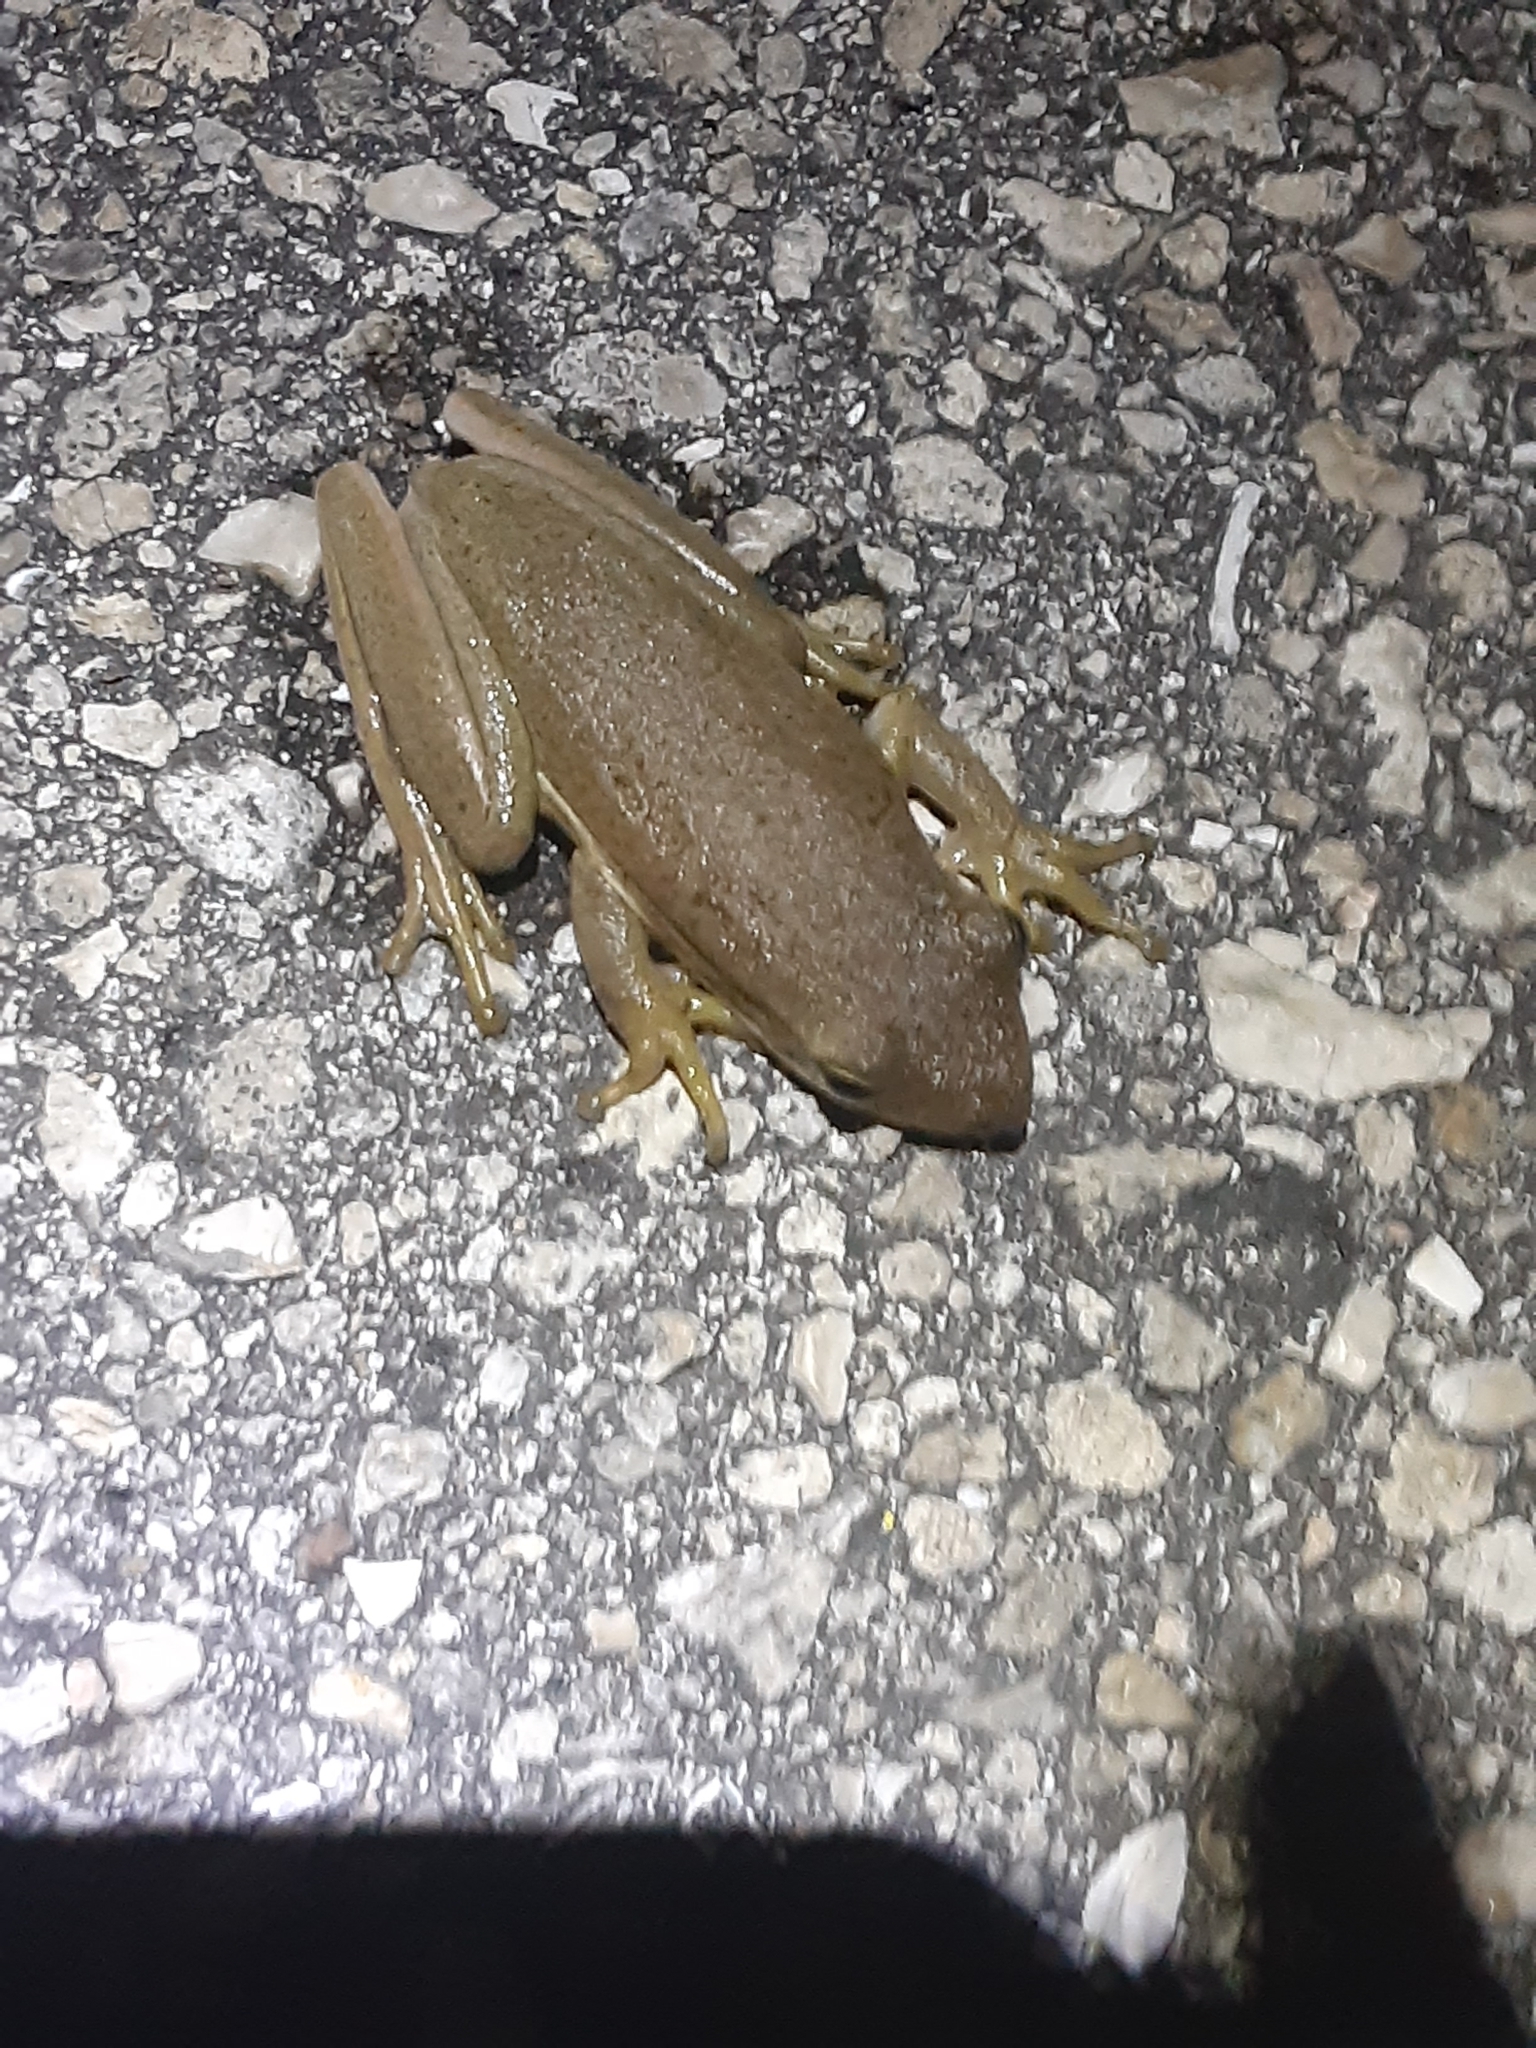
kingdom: Animalia
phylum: Chordata
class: Amphibia
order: Anura
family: Hylidae
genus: Dryophytes
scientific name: Dryophytes cinereus
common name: Green treefrog
